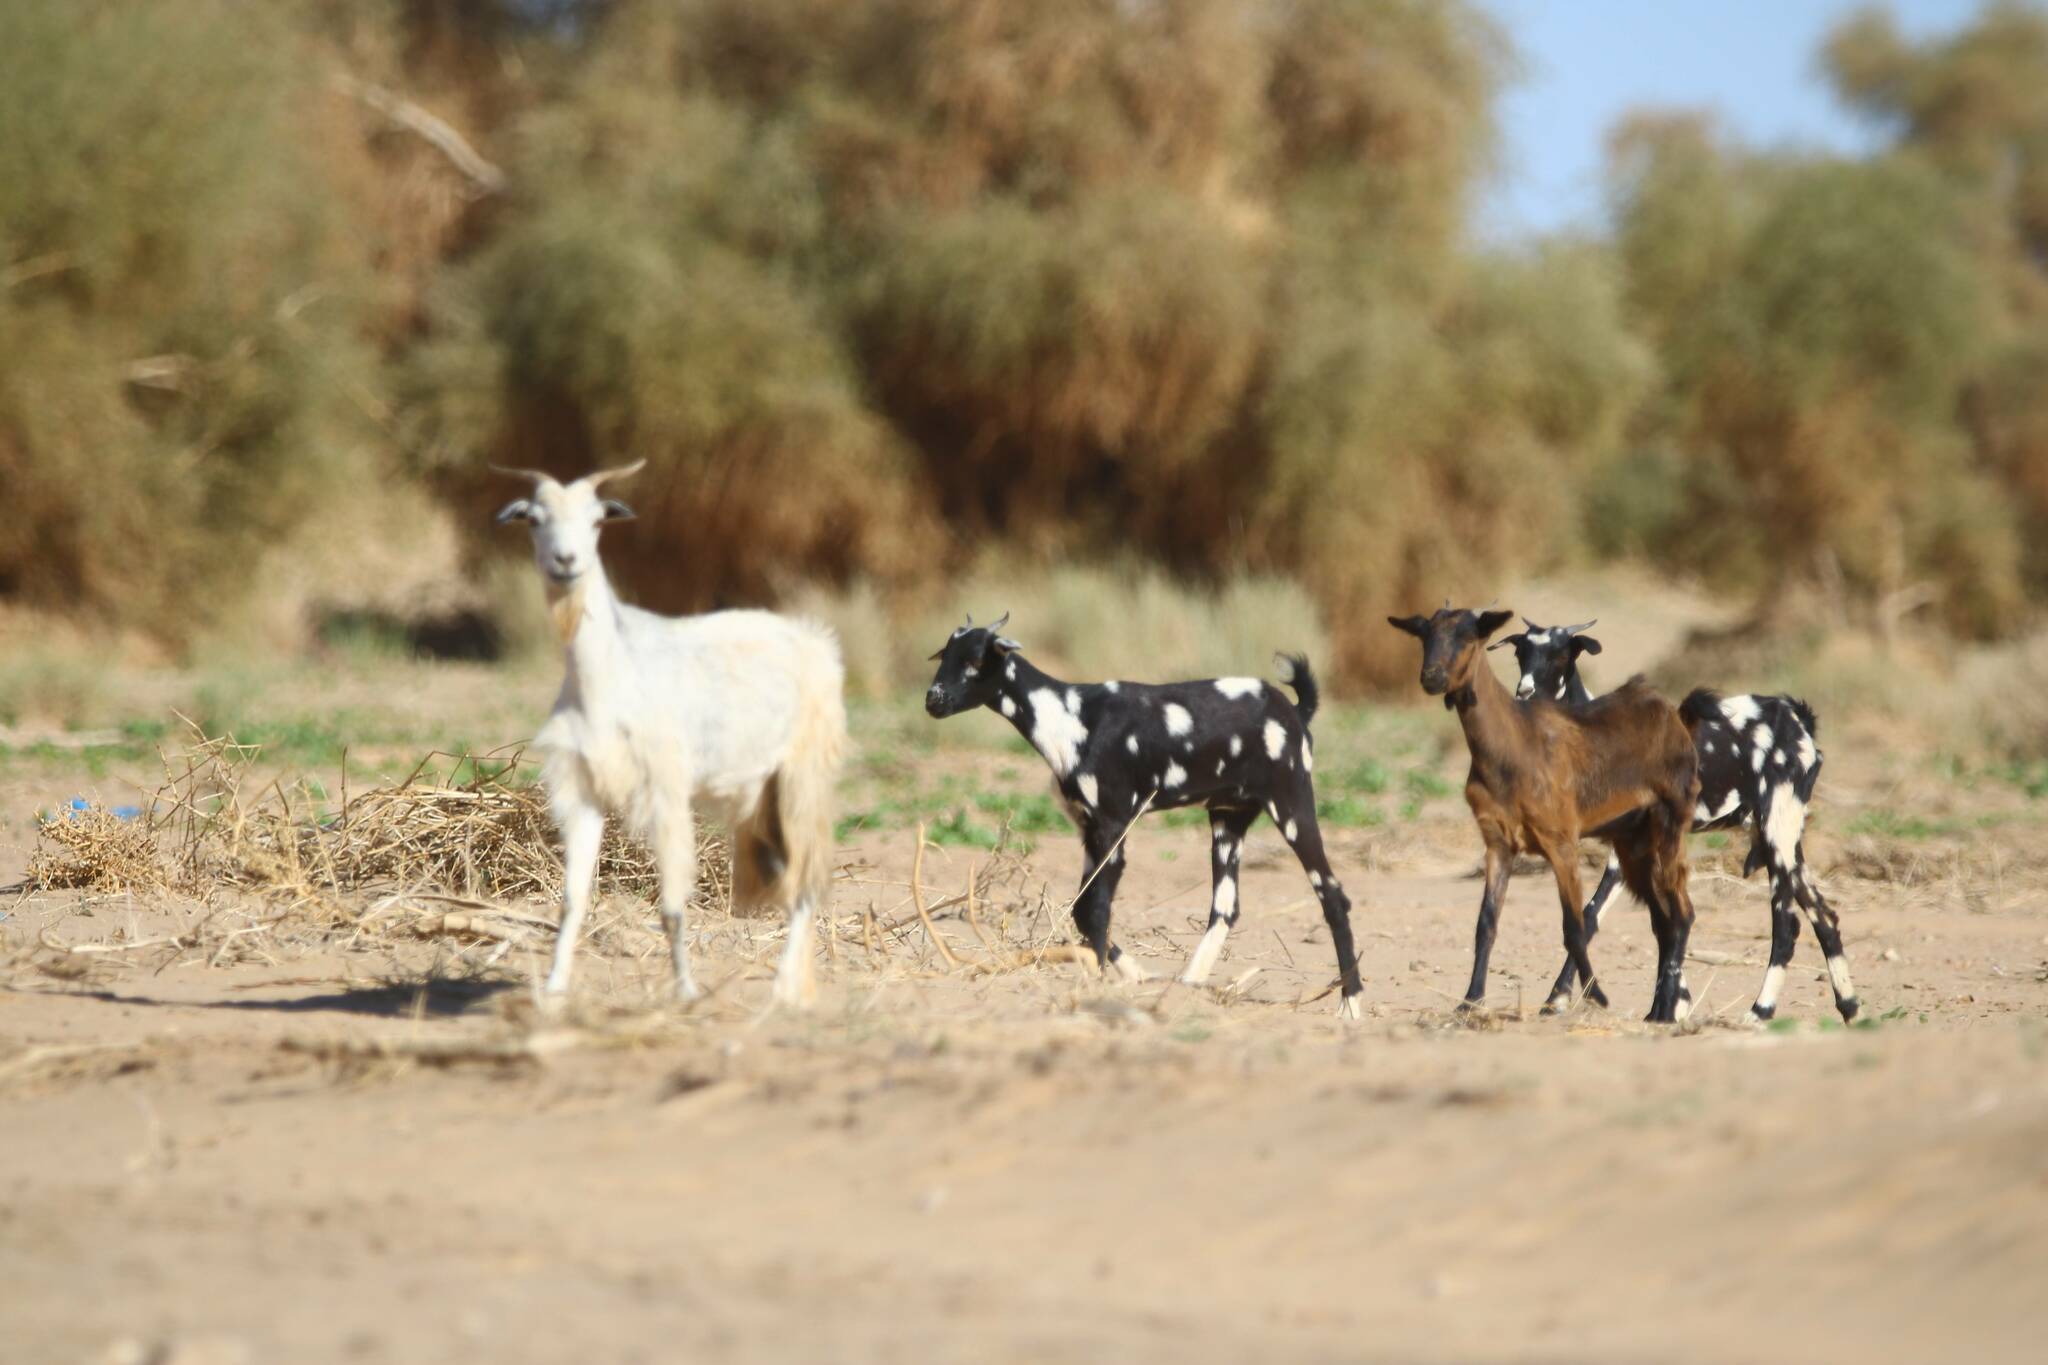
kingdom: Animalia
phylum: Chordata
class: Mammalia
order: Artiodactyla
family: Bovidae
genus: Capra
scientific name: Capra hircus
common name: Domestic goat
